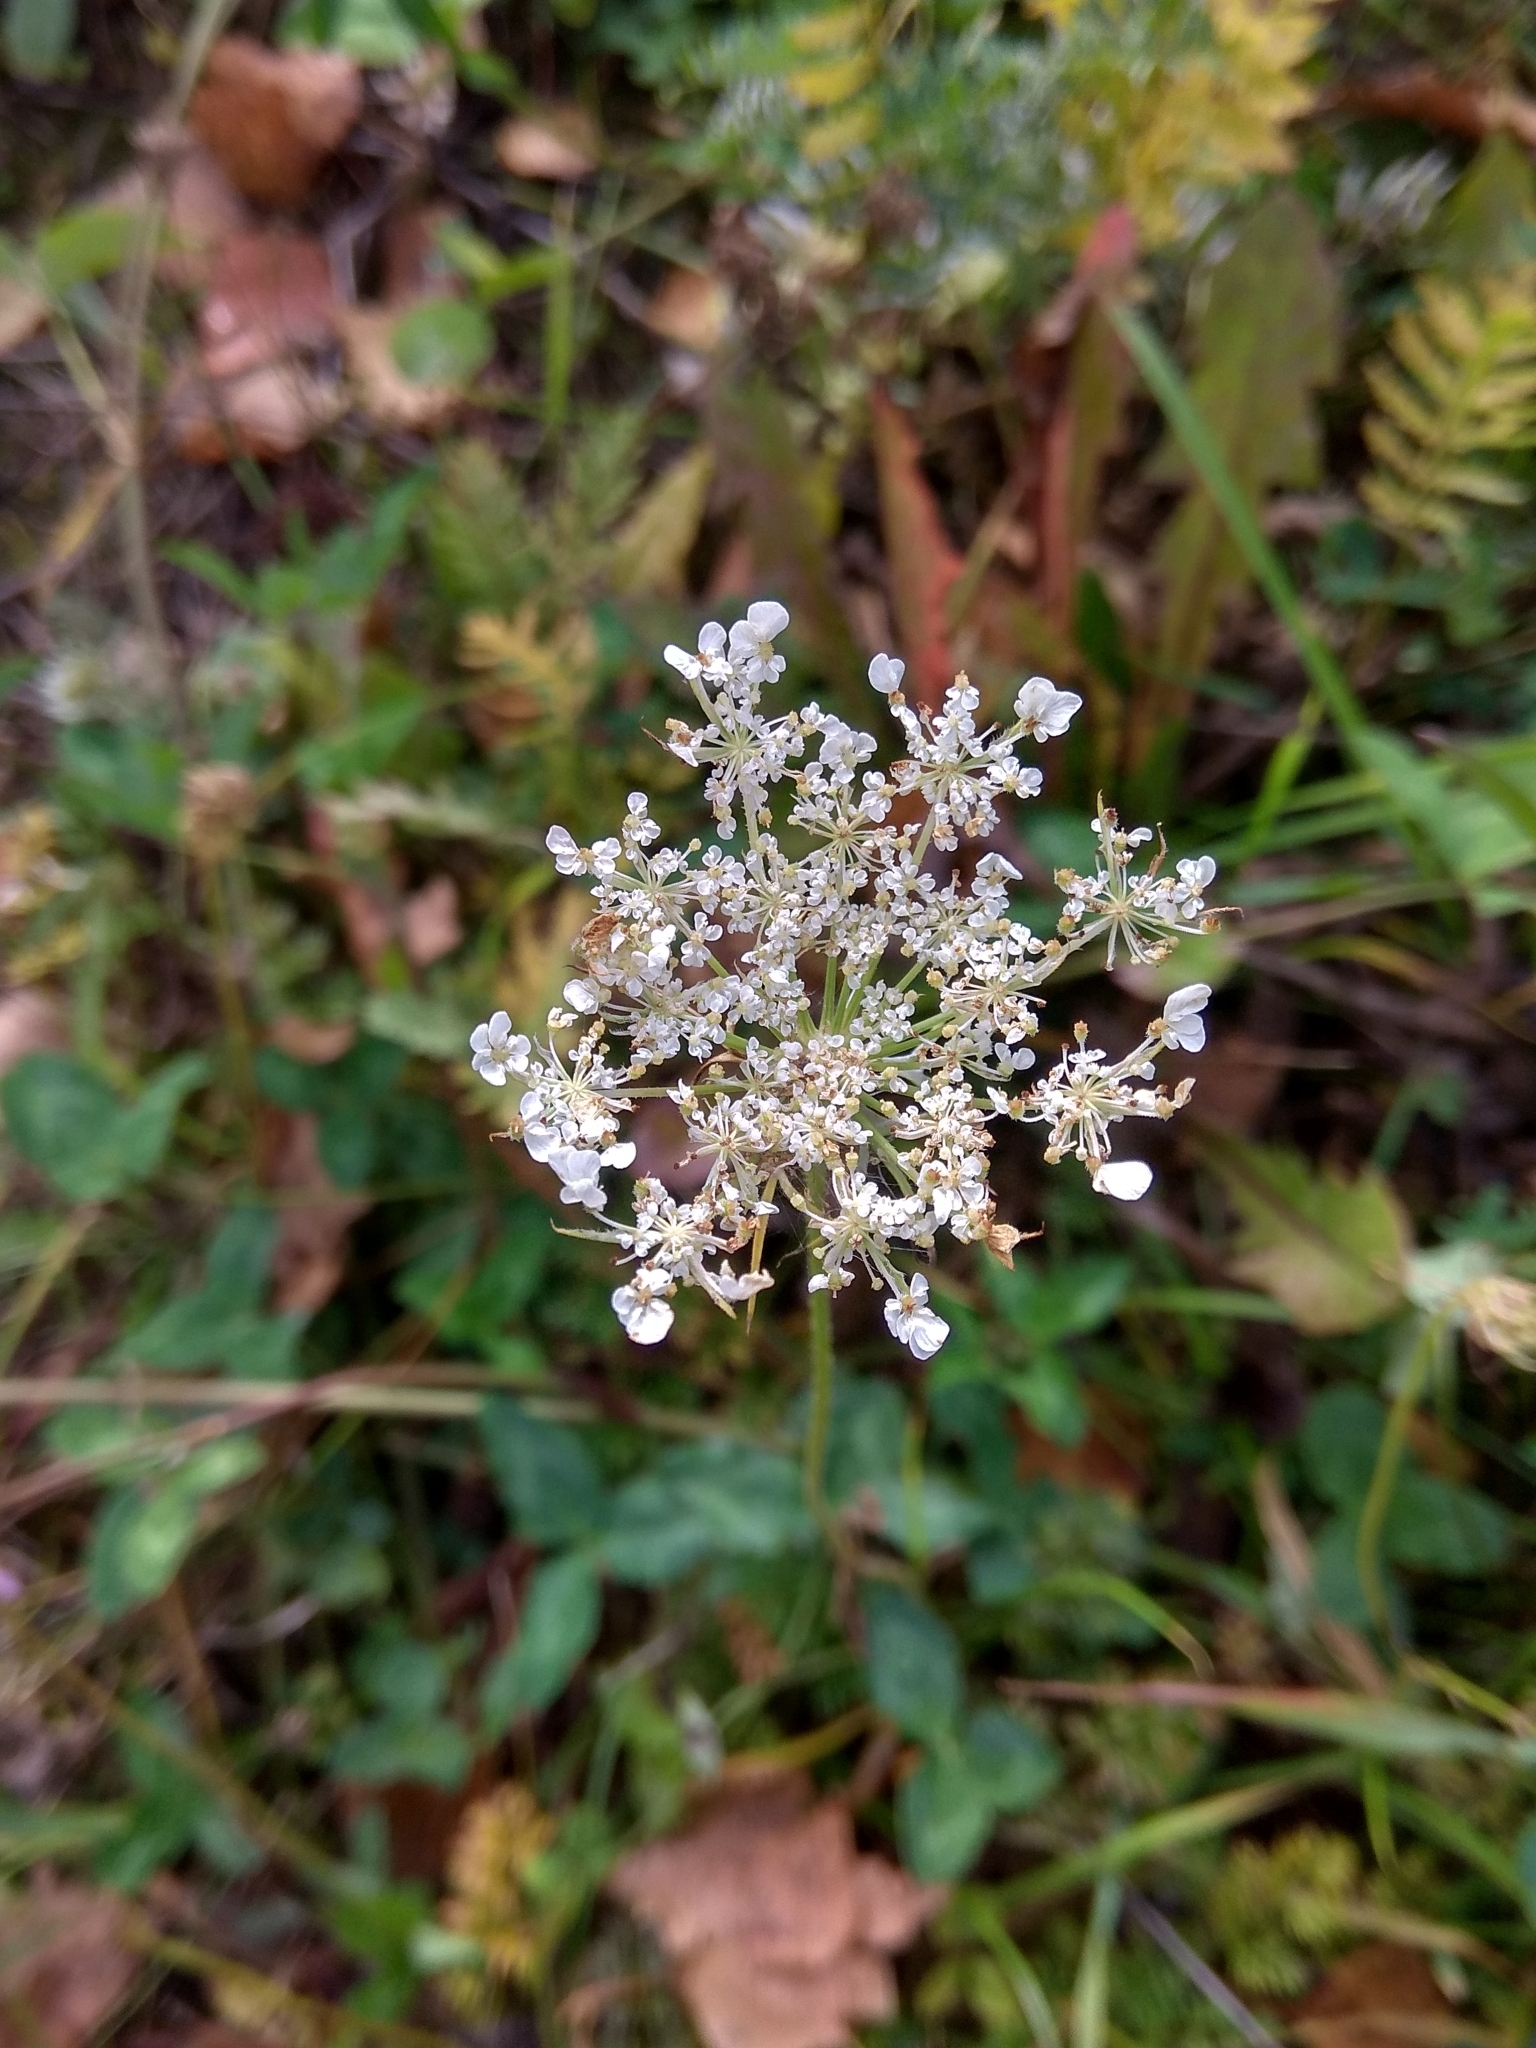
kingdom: Plantae
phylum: Tracheophyta
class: Magnoliopsida
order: Apiales
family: Apiaceae
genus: Daucus
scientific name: Daucus carota
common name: Wild carrot
